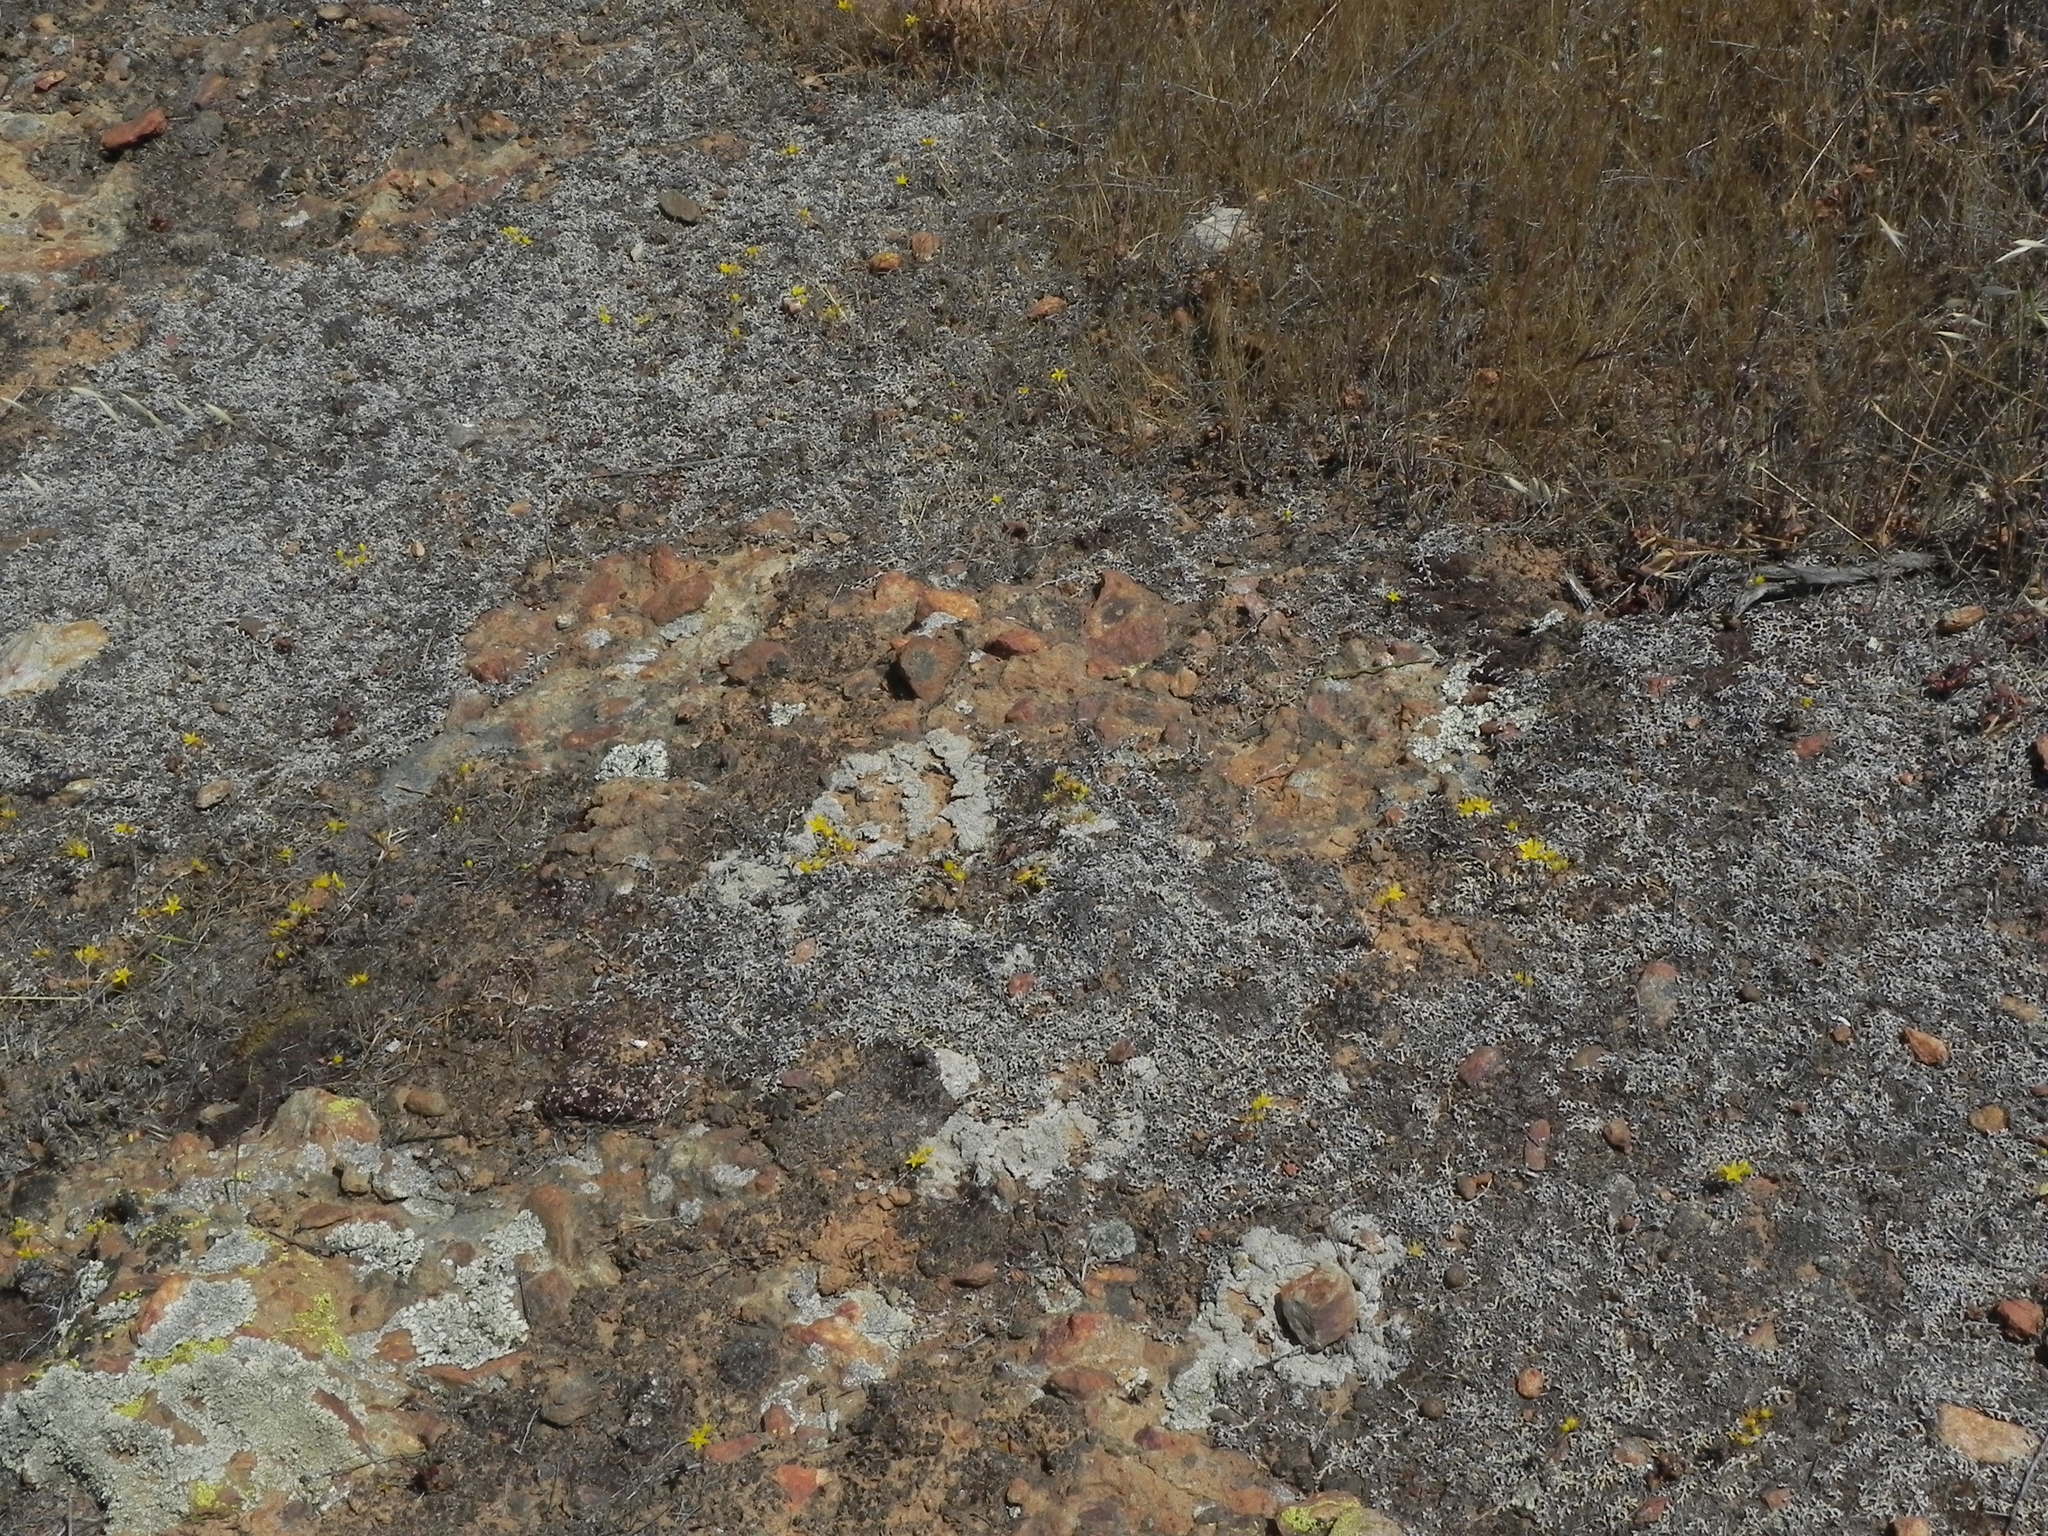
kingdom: Plantae
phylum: Tracheophyta
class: Magnoliopsida
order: Saxifragales
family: Crassulaceae
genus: Dudleya
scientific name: Dudleya variegata
